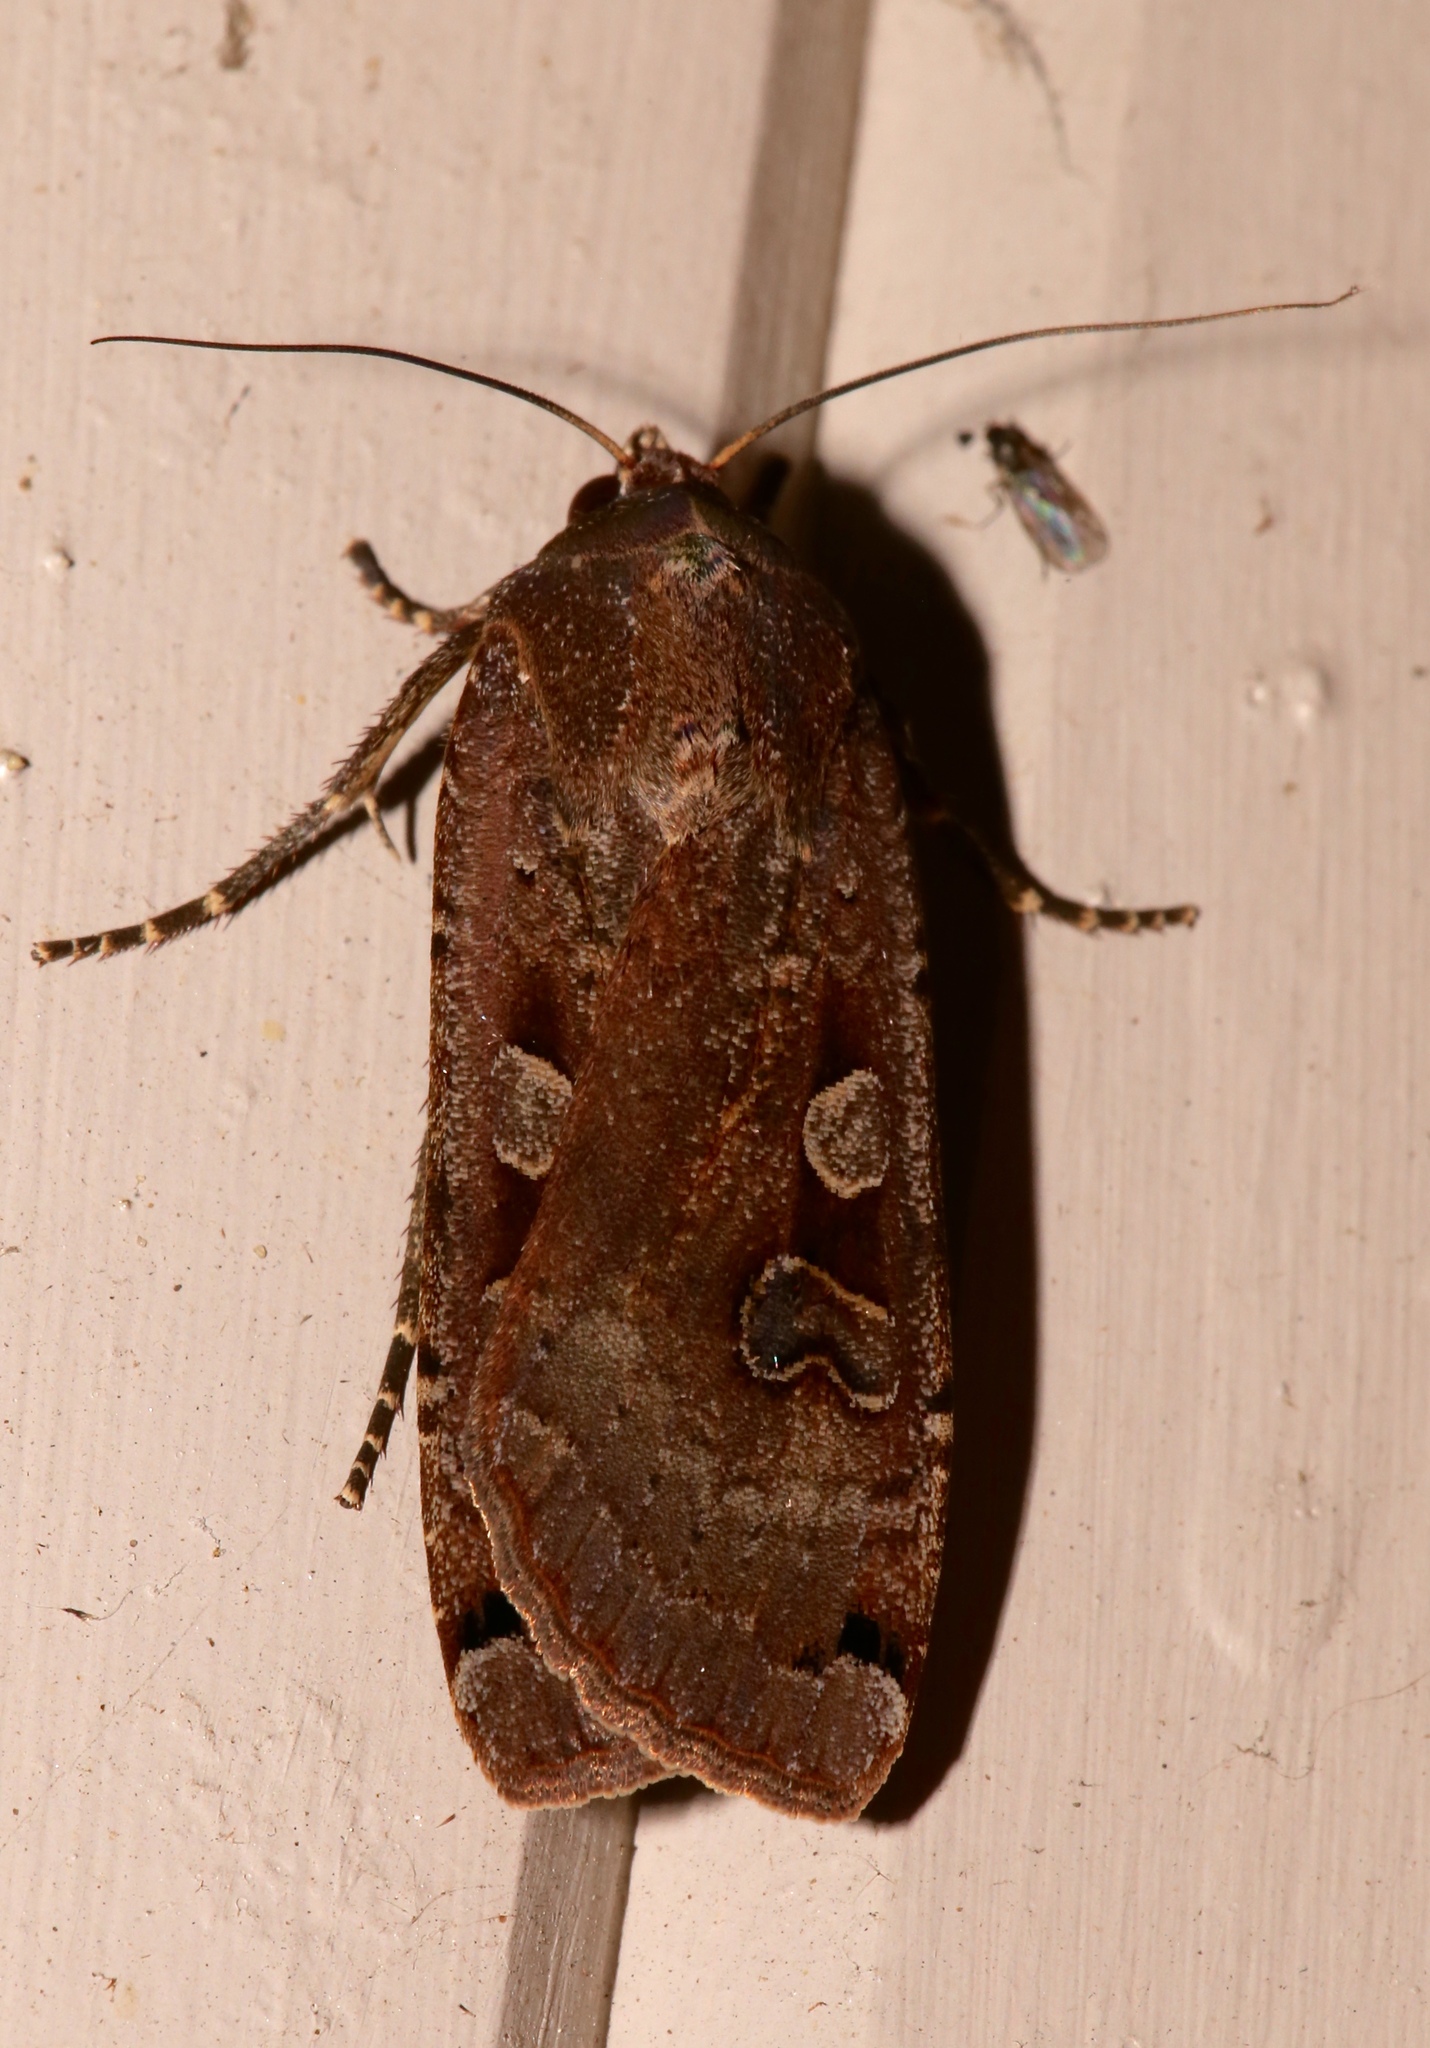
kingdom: Animalia
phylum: Arthropoda
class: Insecta
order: Lepidoptera
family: Noctuidae
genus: Noctua
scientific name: Noctua pronuba
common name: Large yellow underwing
